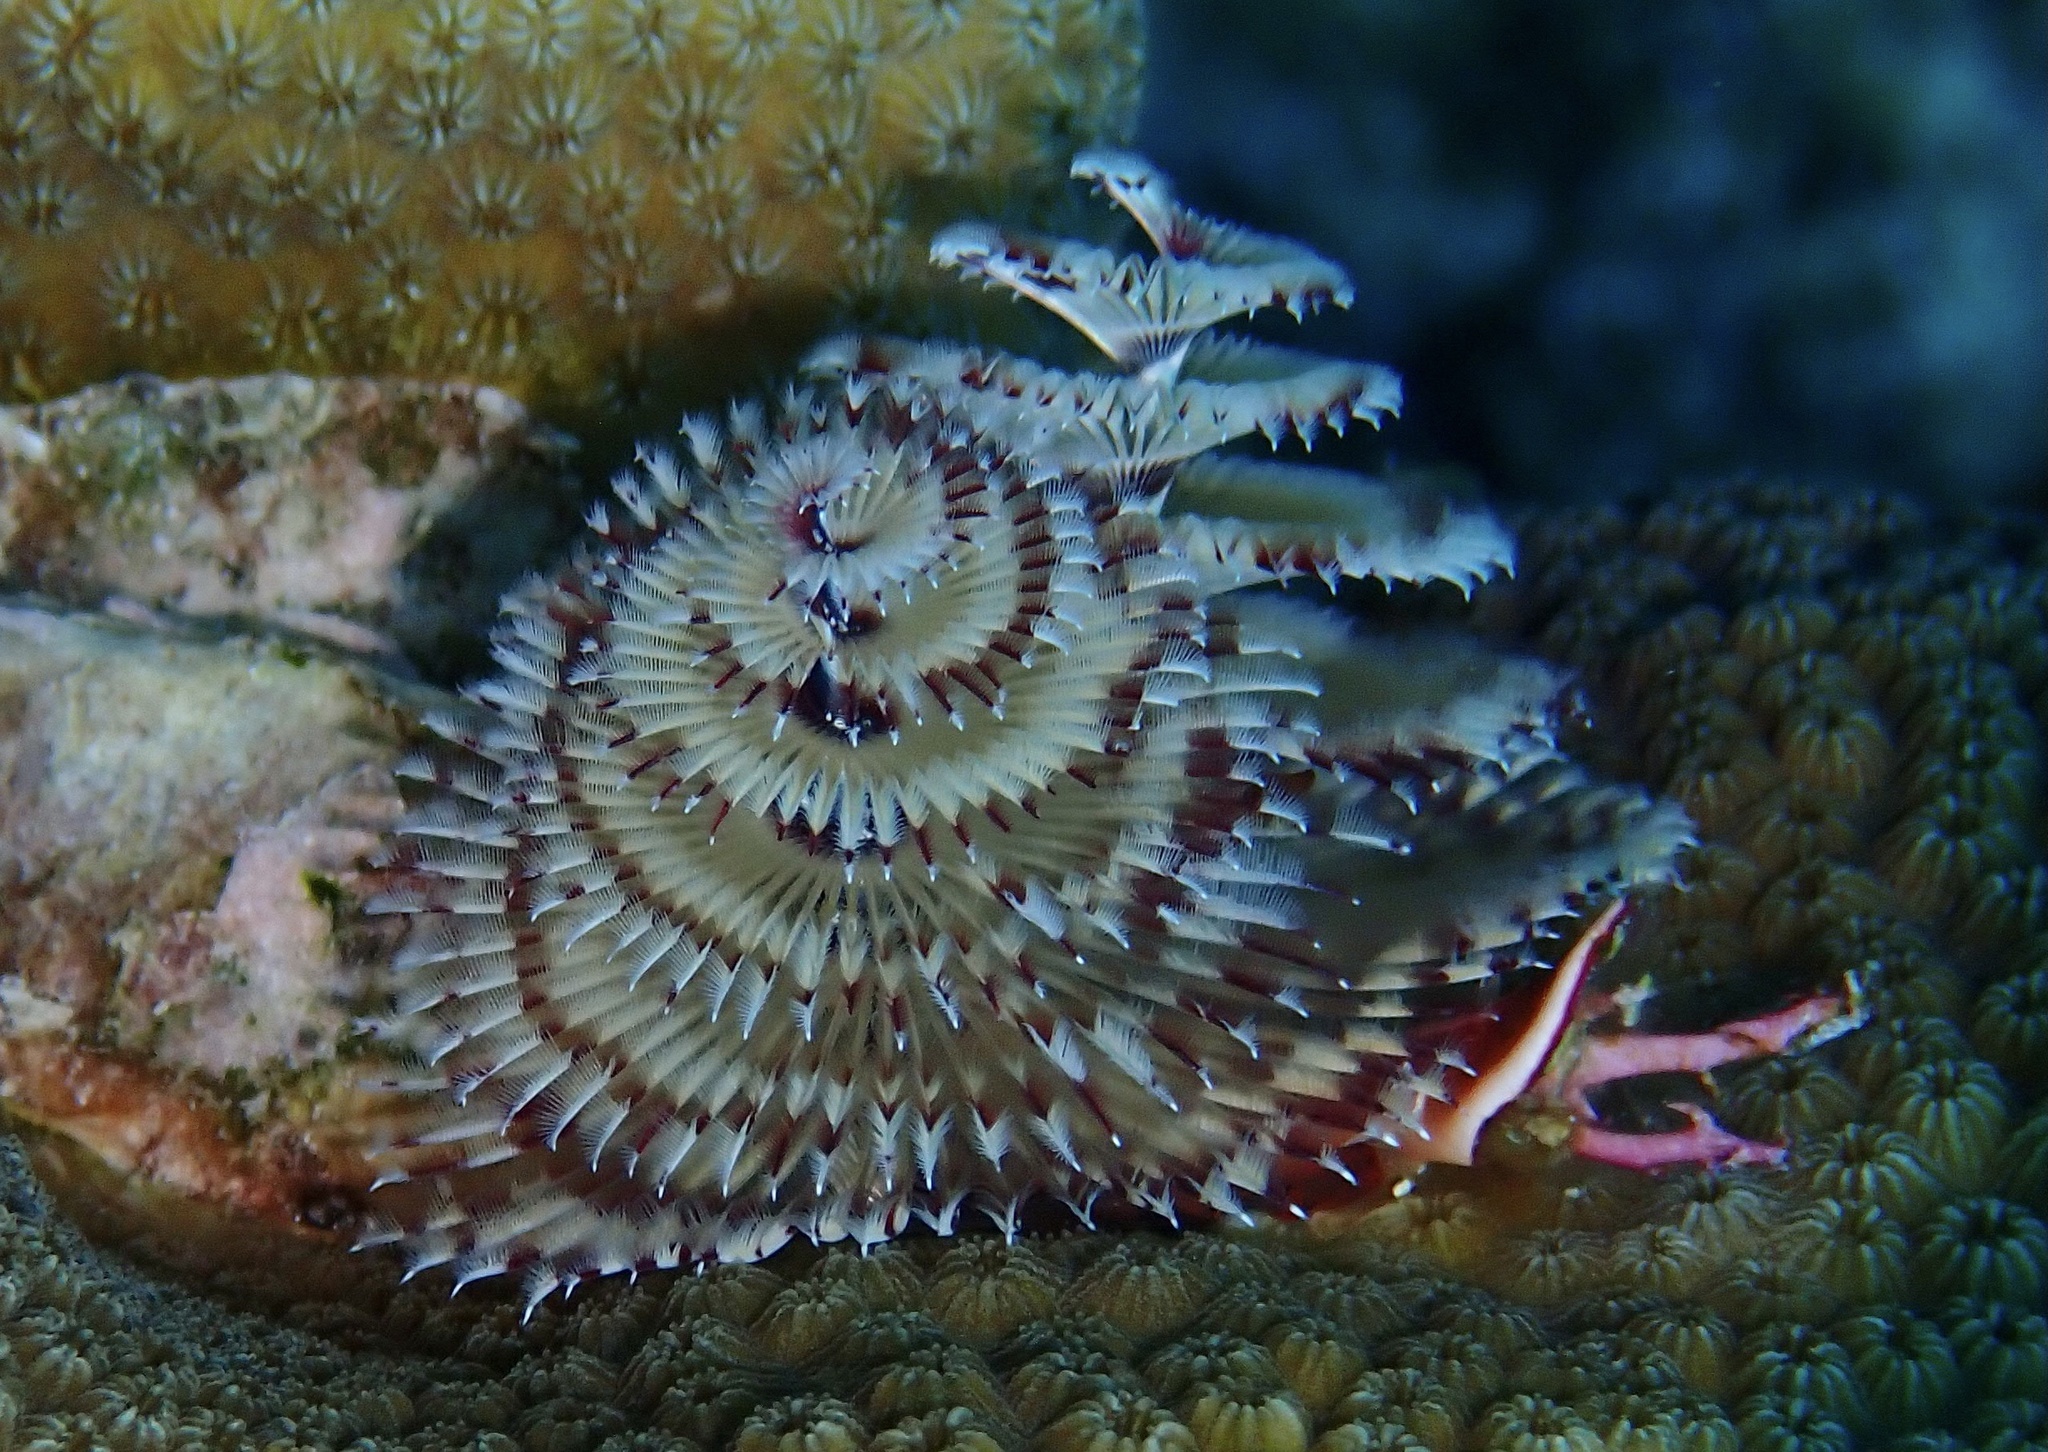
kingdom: Animalia
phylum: Annelida
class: Polychaeta
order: Sabellida
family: Serpulidae
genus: Spirobranchus
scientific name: Spirobranchus giganteus
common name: Christmas tree worm
